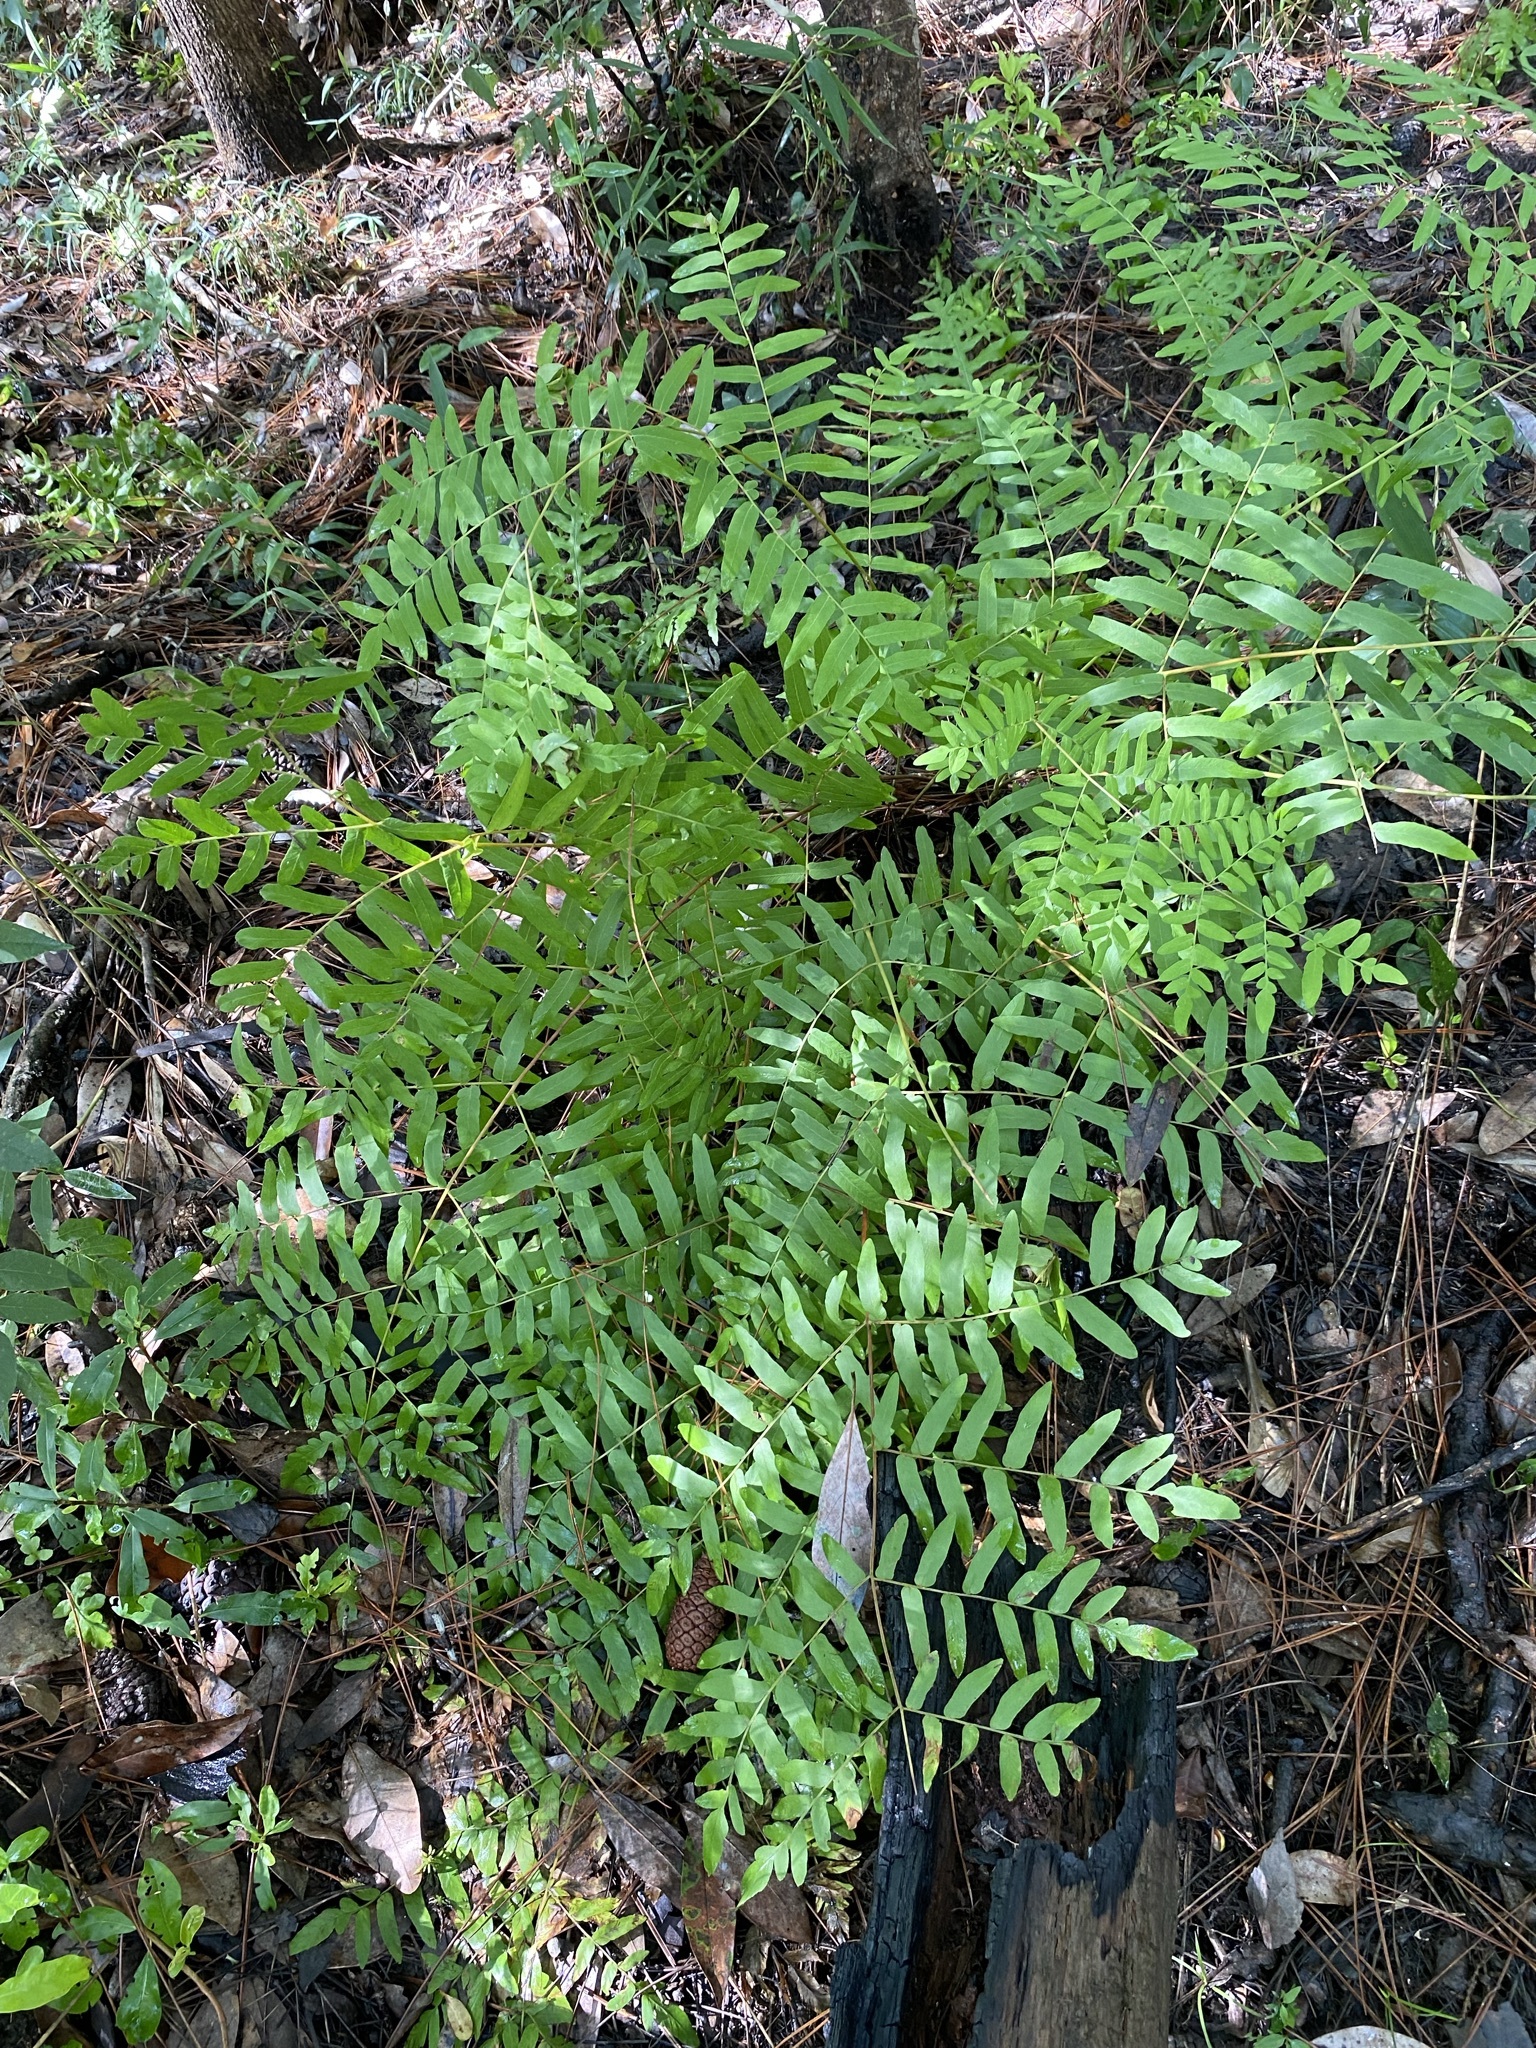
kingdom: Plantae
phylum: Tracheophyta
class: Polypodiopsida
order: Osmundales
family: Osmundaceae
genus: Osmunda
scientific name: Osmunda spectabilis
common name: American royal fern
